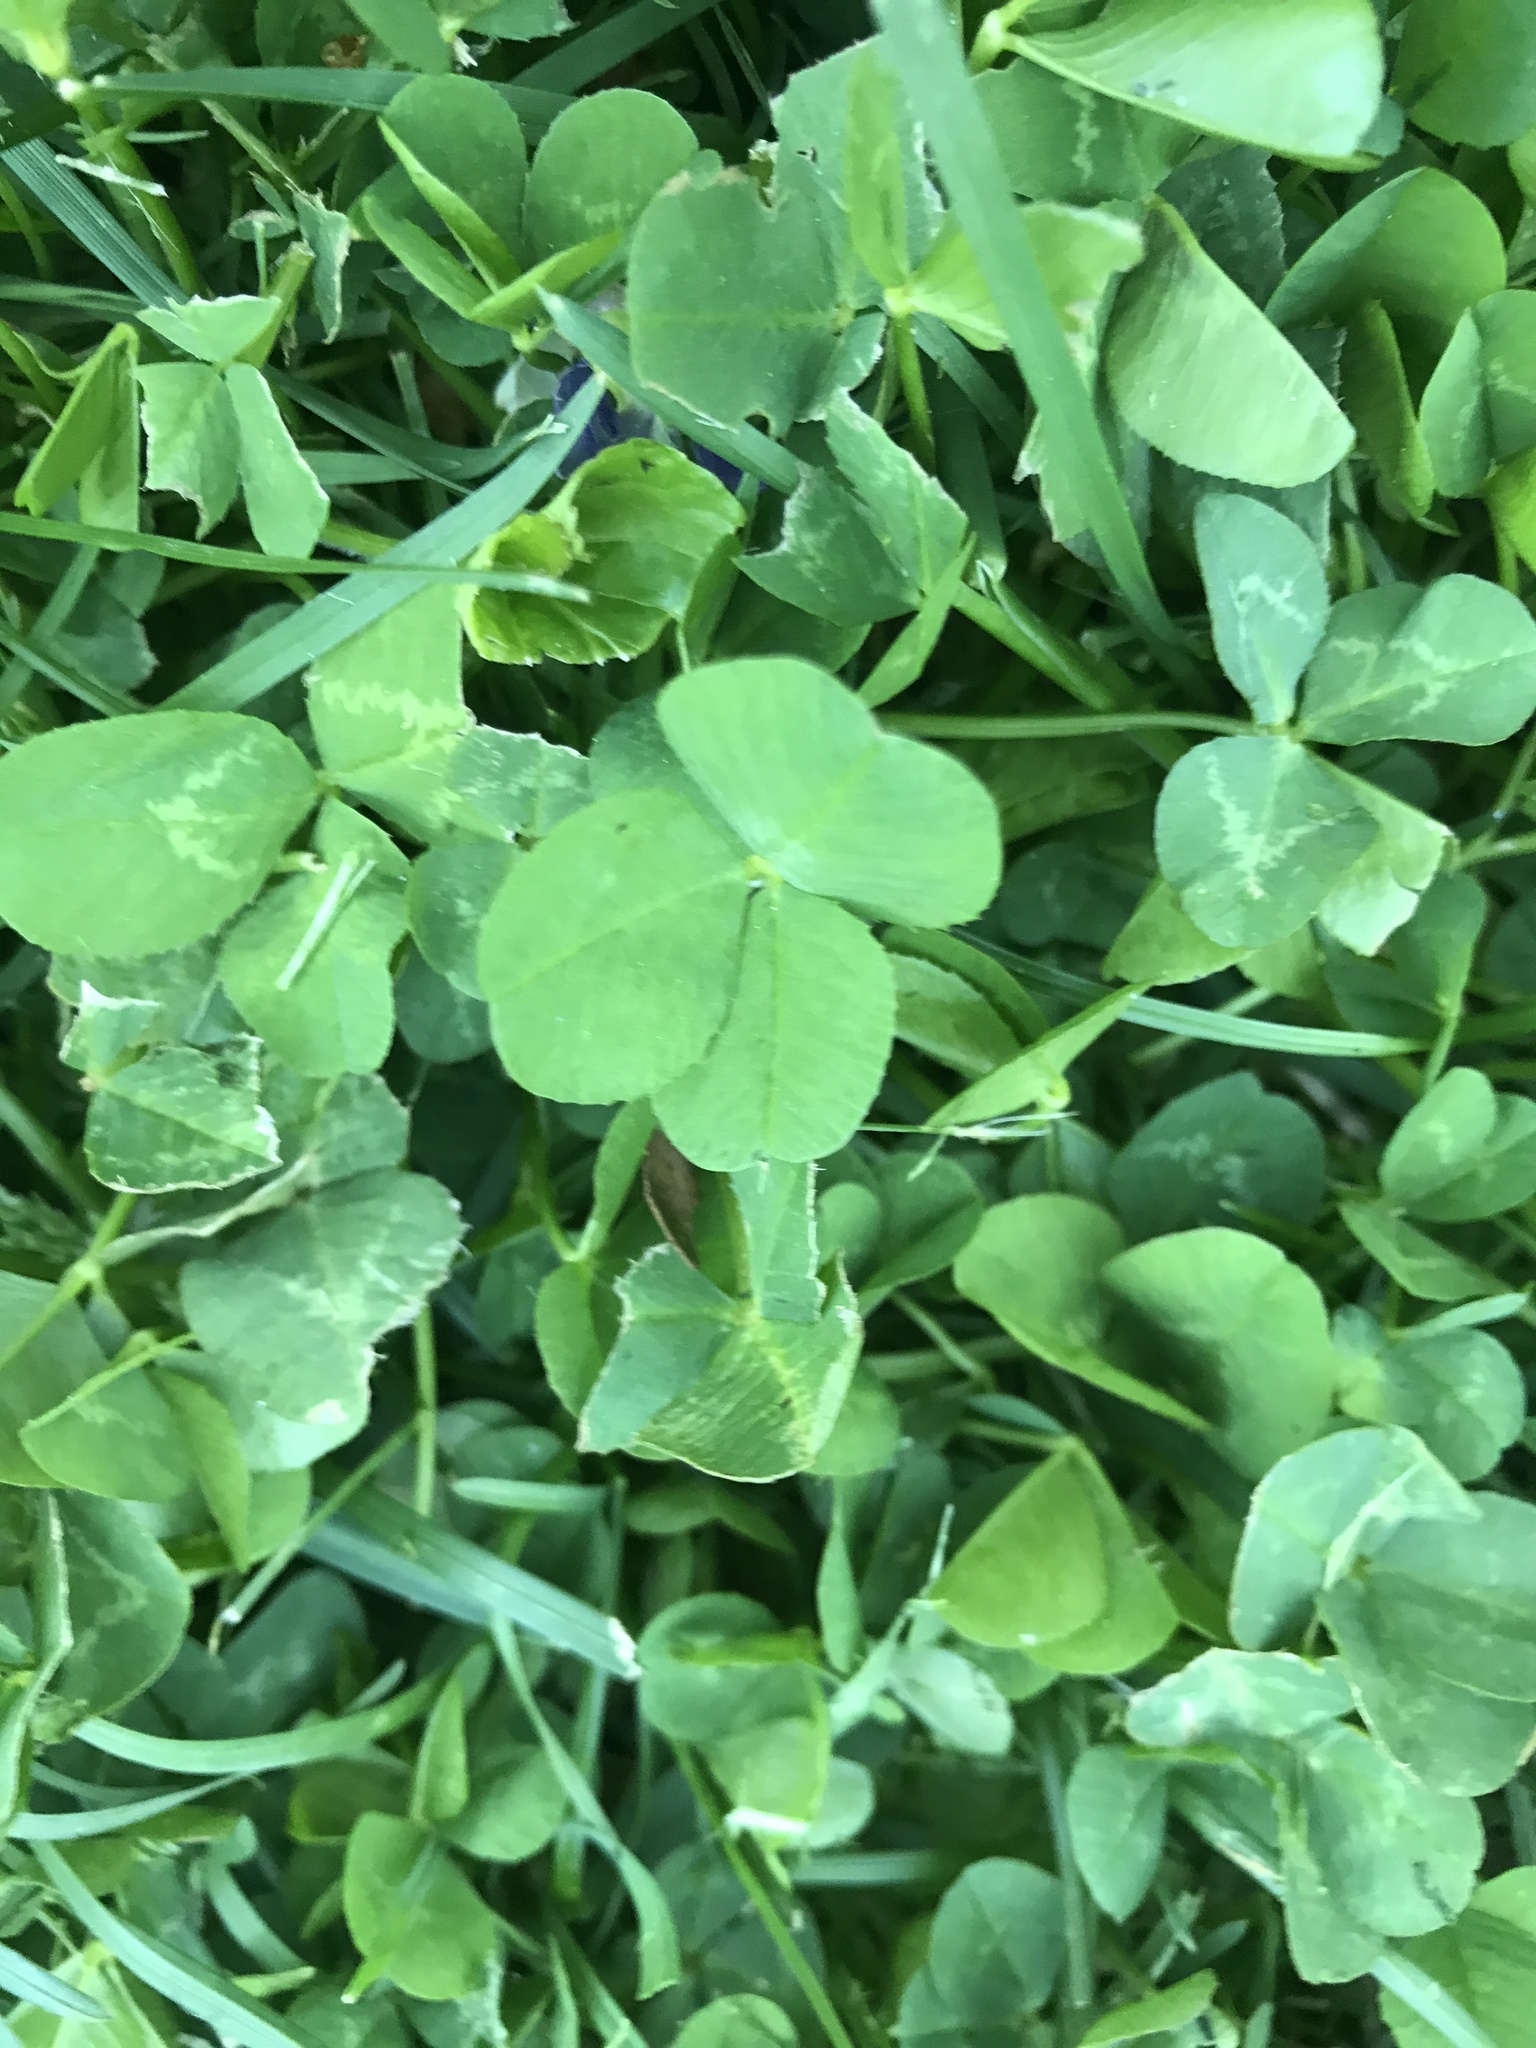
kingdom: Plantae
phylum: Tracheophyta
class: Magnoliopsida
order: Fabales
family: Fabaceae
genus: Trifolium
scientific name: Trifolium repens
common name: White clover
